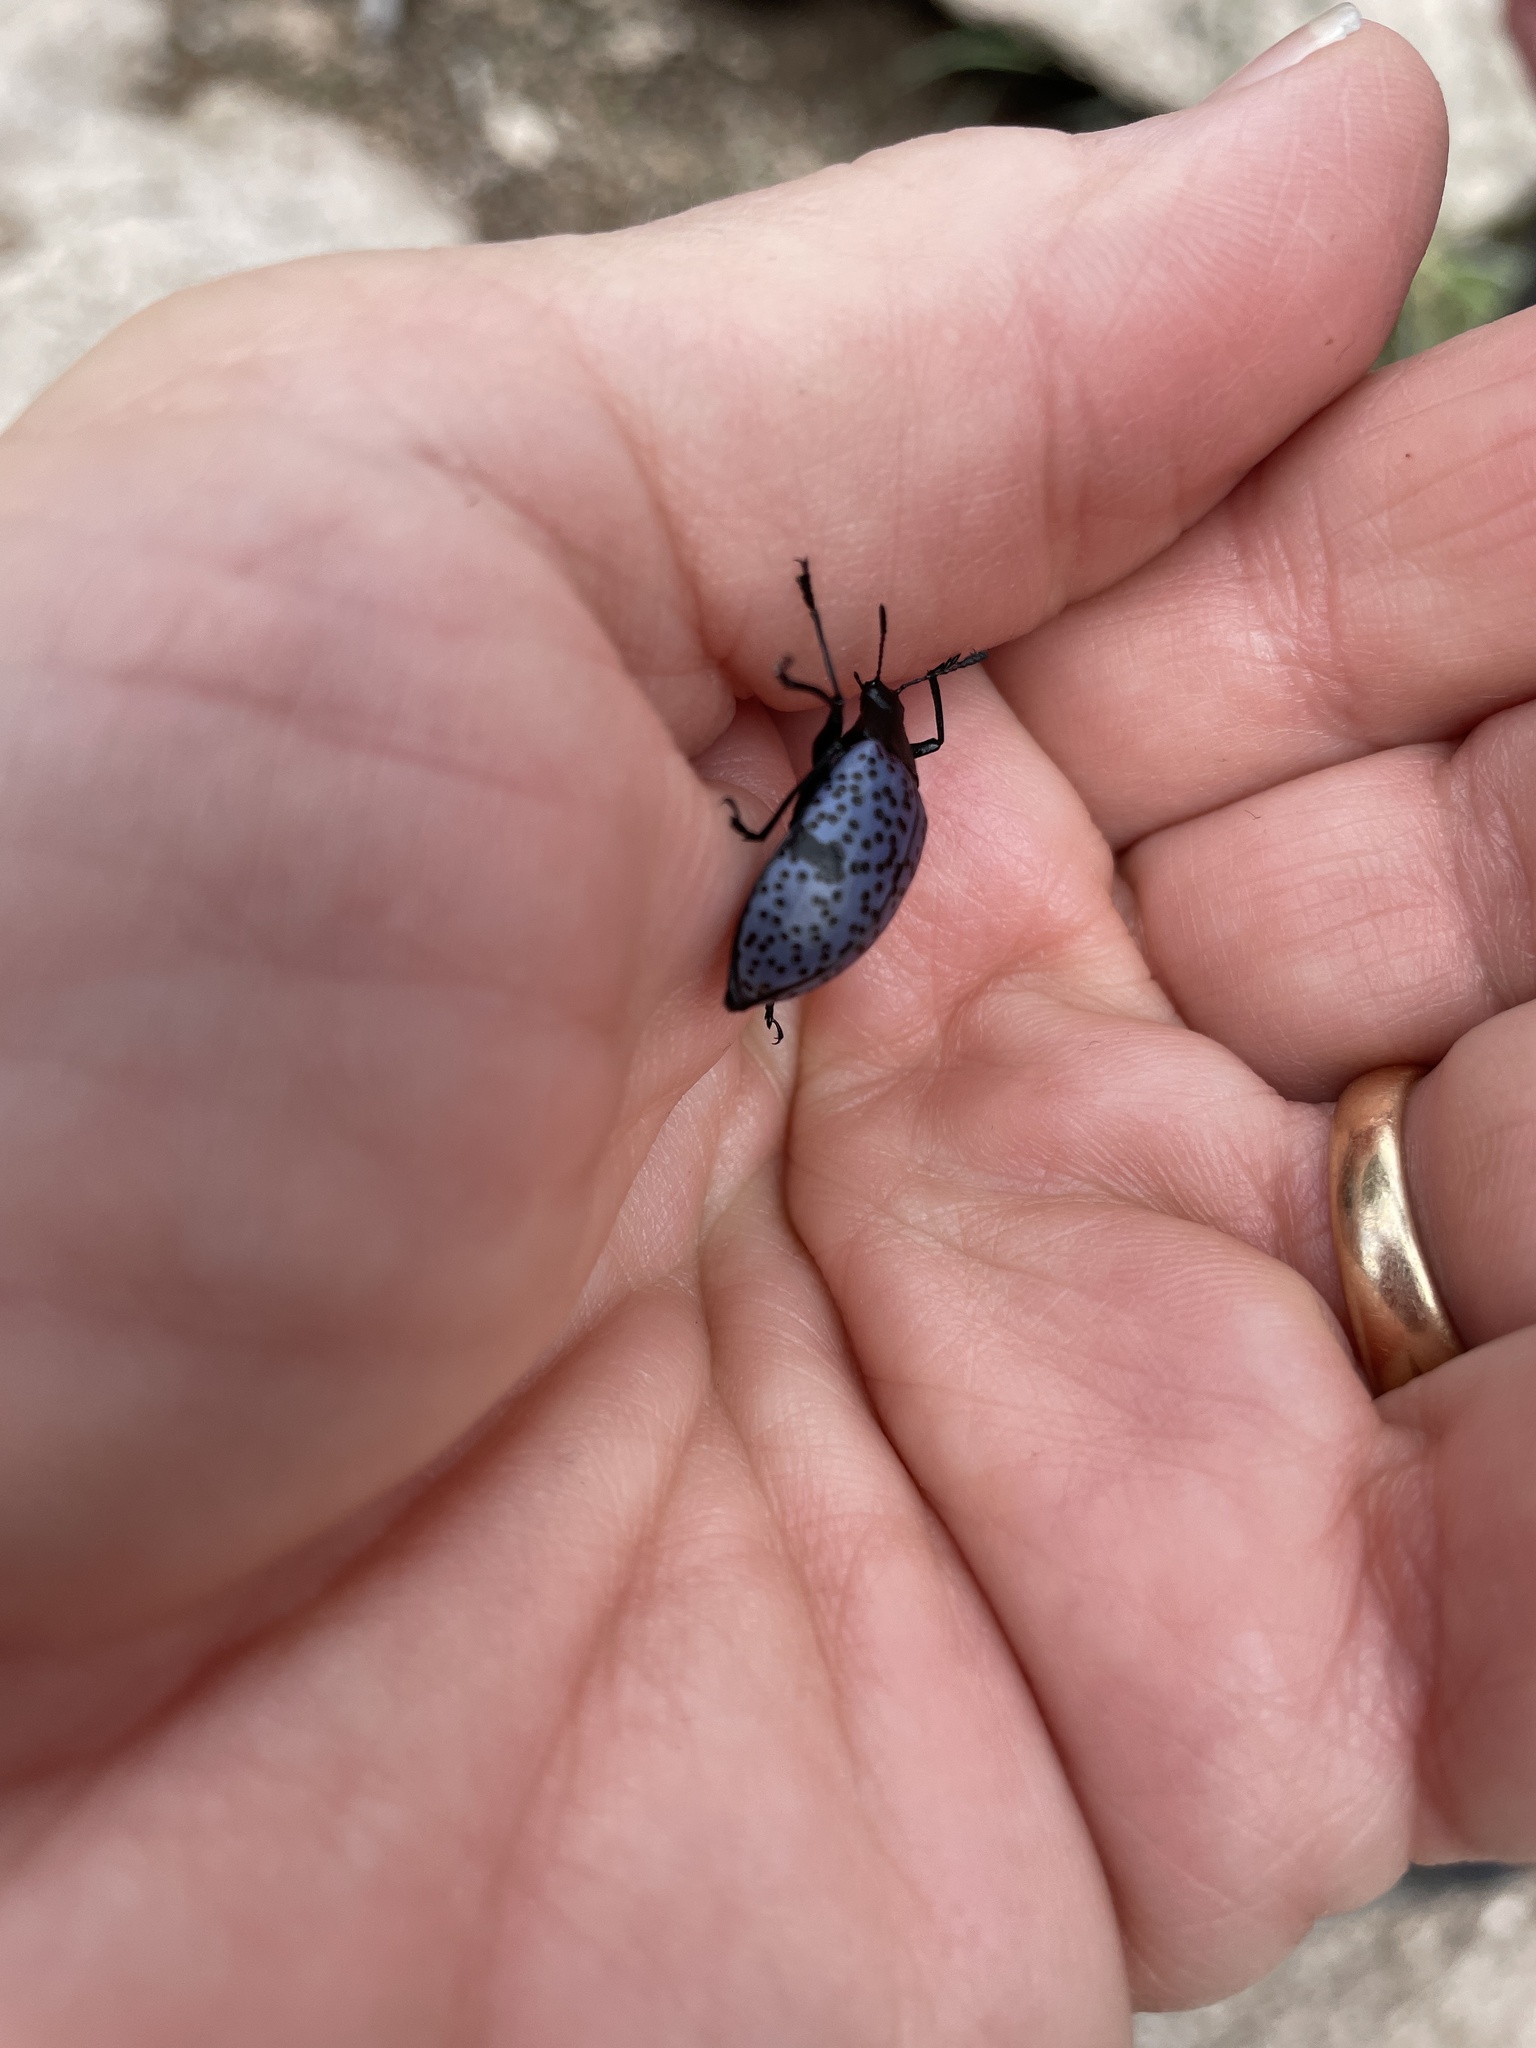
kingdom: Animalia
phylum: Arthropoda
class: Insecta
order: Coleoptera
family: Erotylidae
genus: Gibbifer
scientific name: Gibbifer californicus
